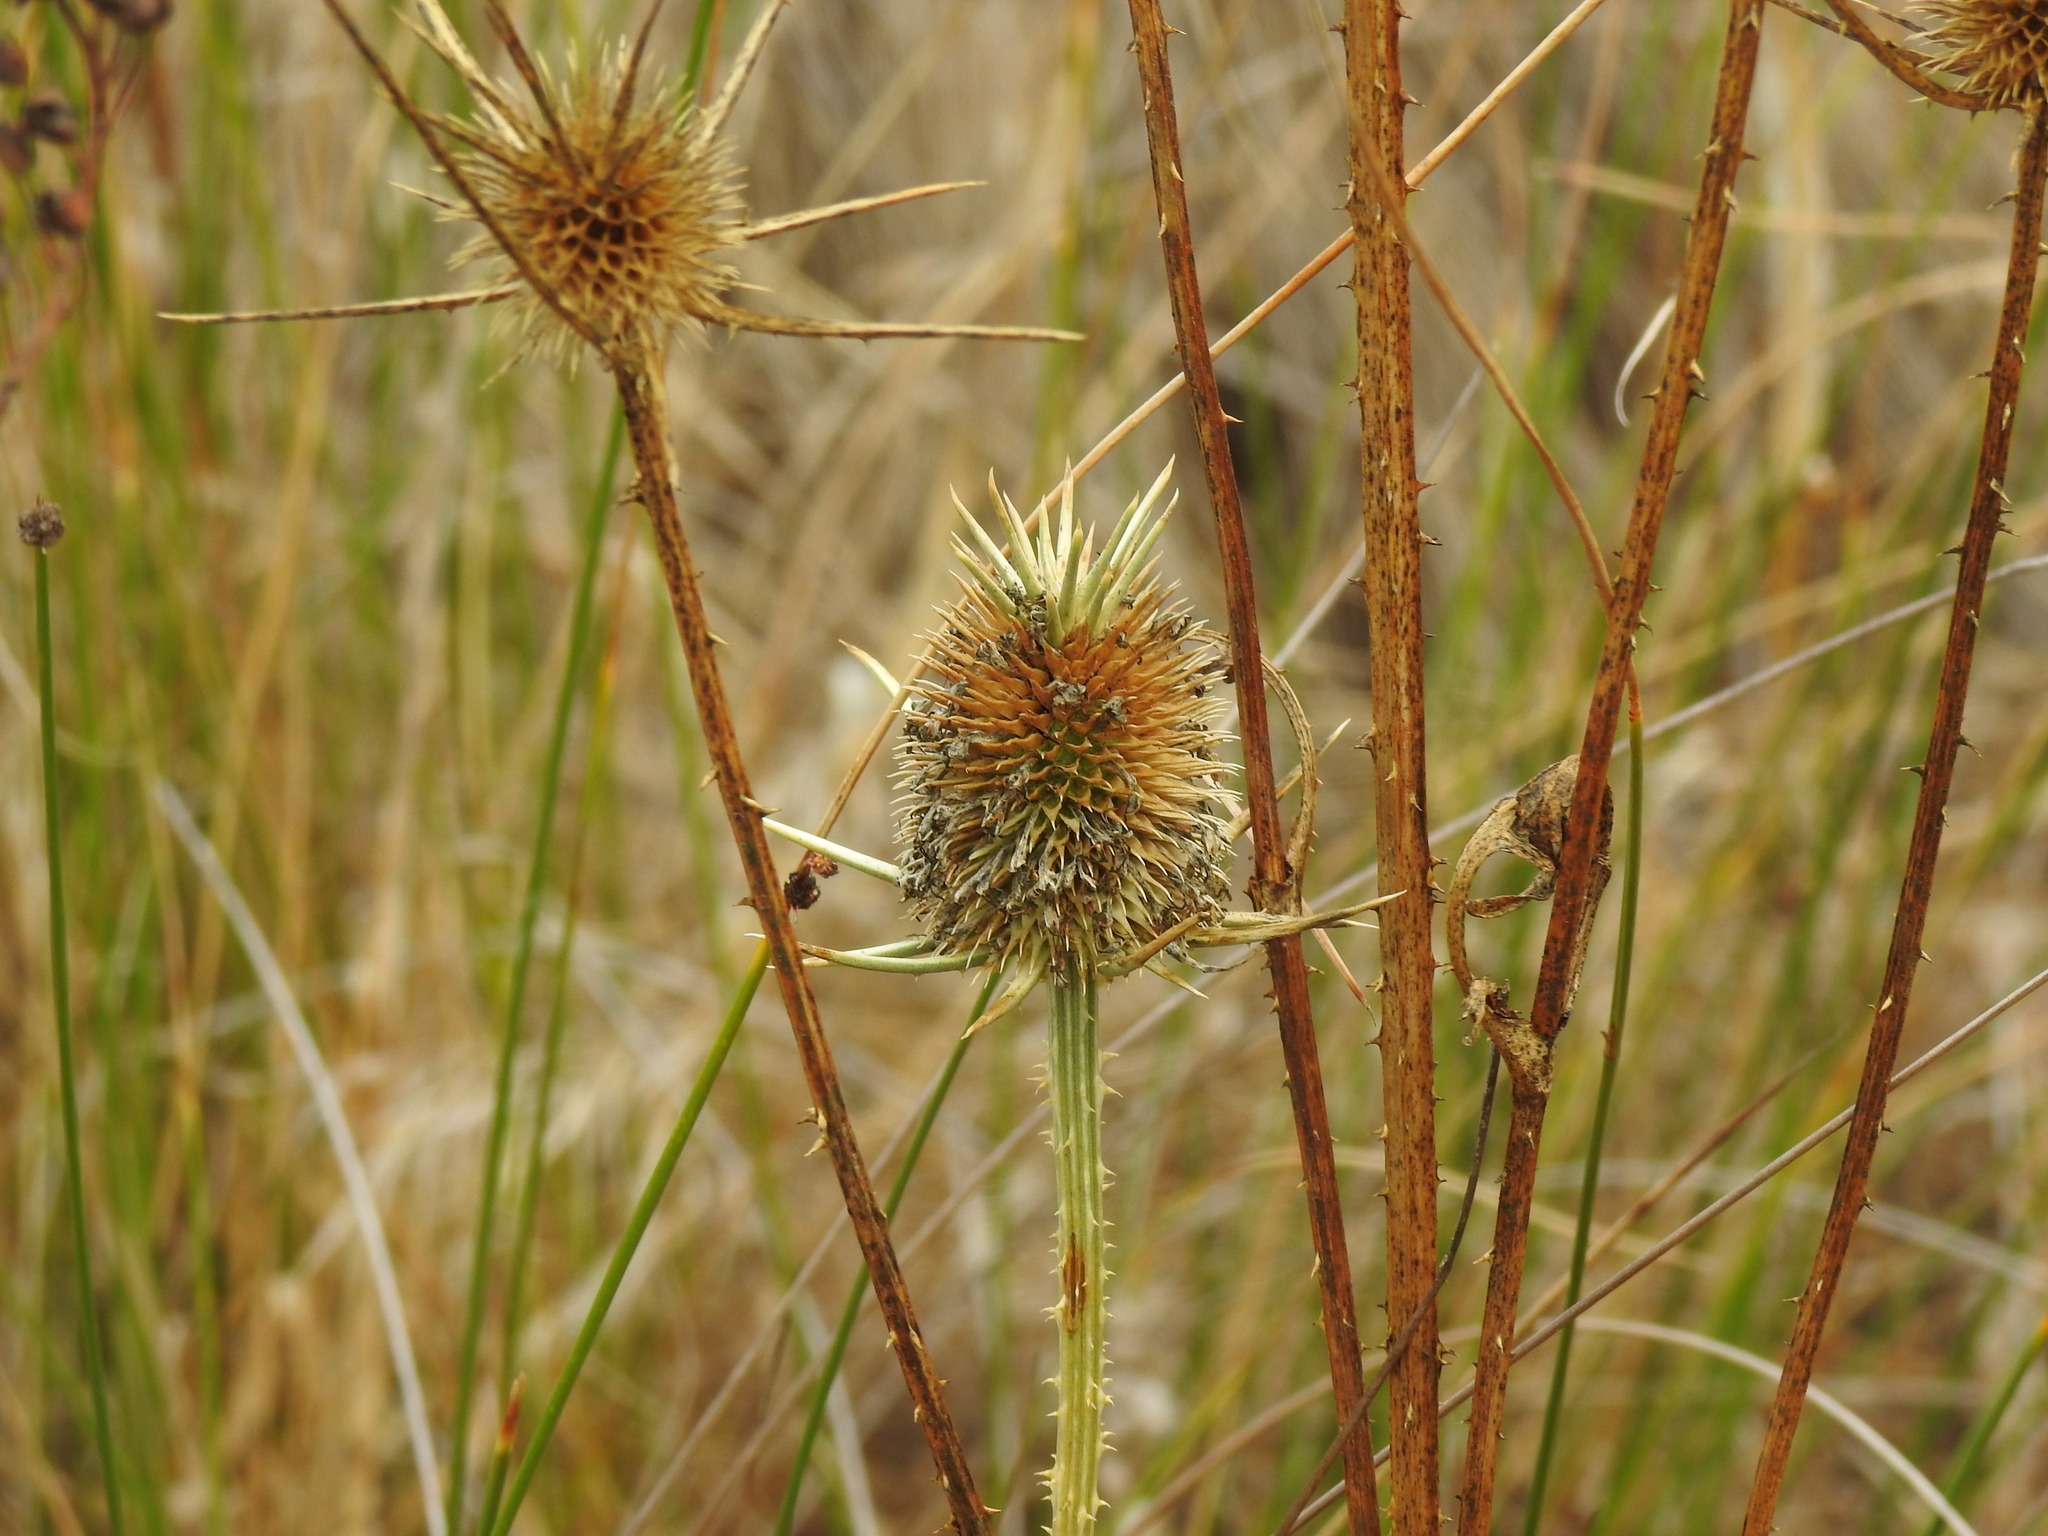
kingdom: Plantae
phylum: Tracheophyta
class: Magnoliopsida
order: Dipsacales
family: Caprifoliaceae
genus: Dipsacus
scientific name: Dipsacus comosus
